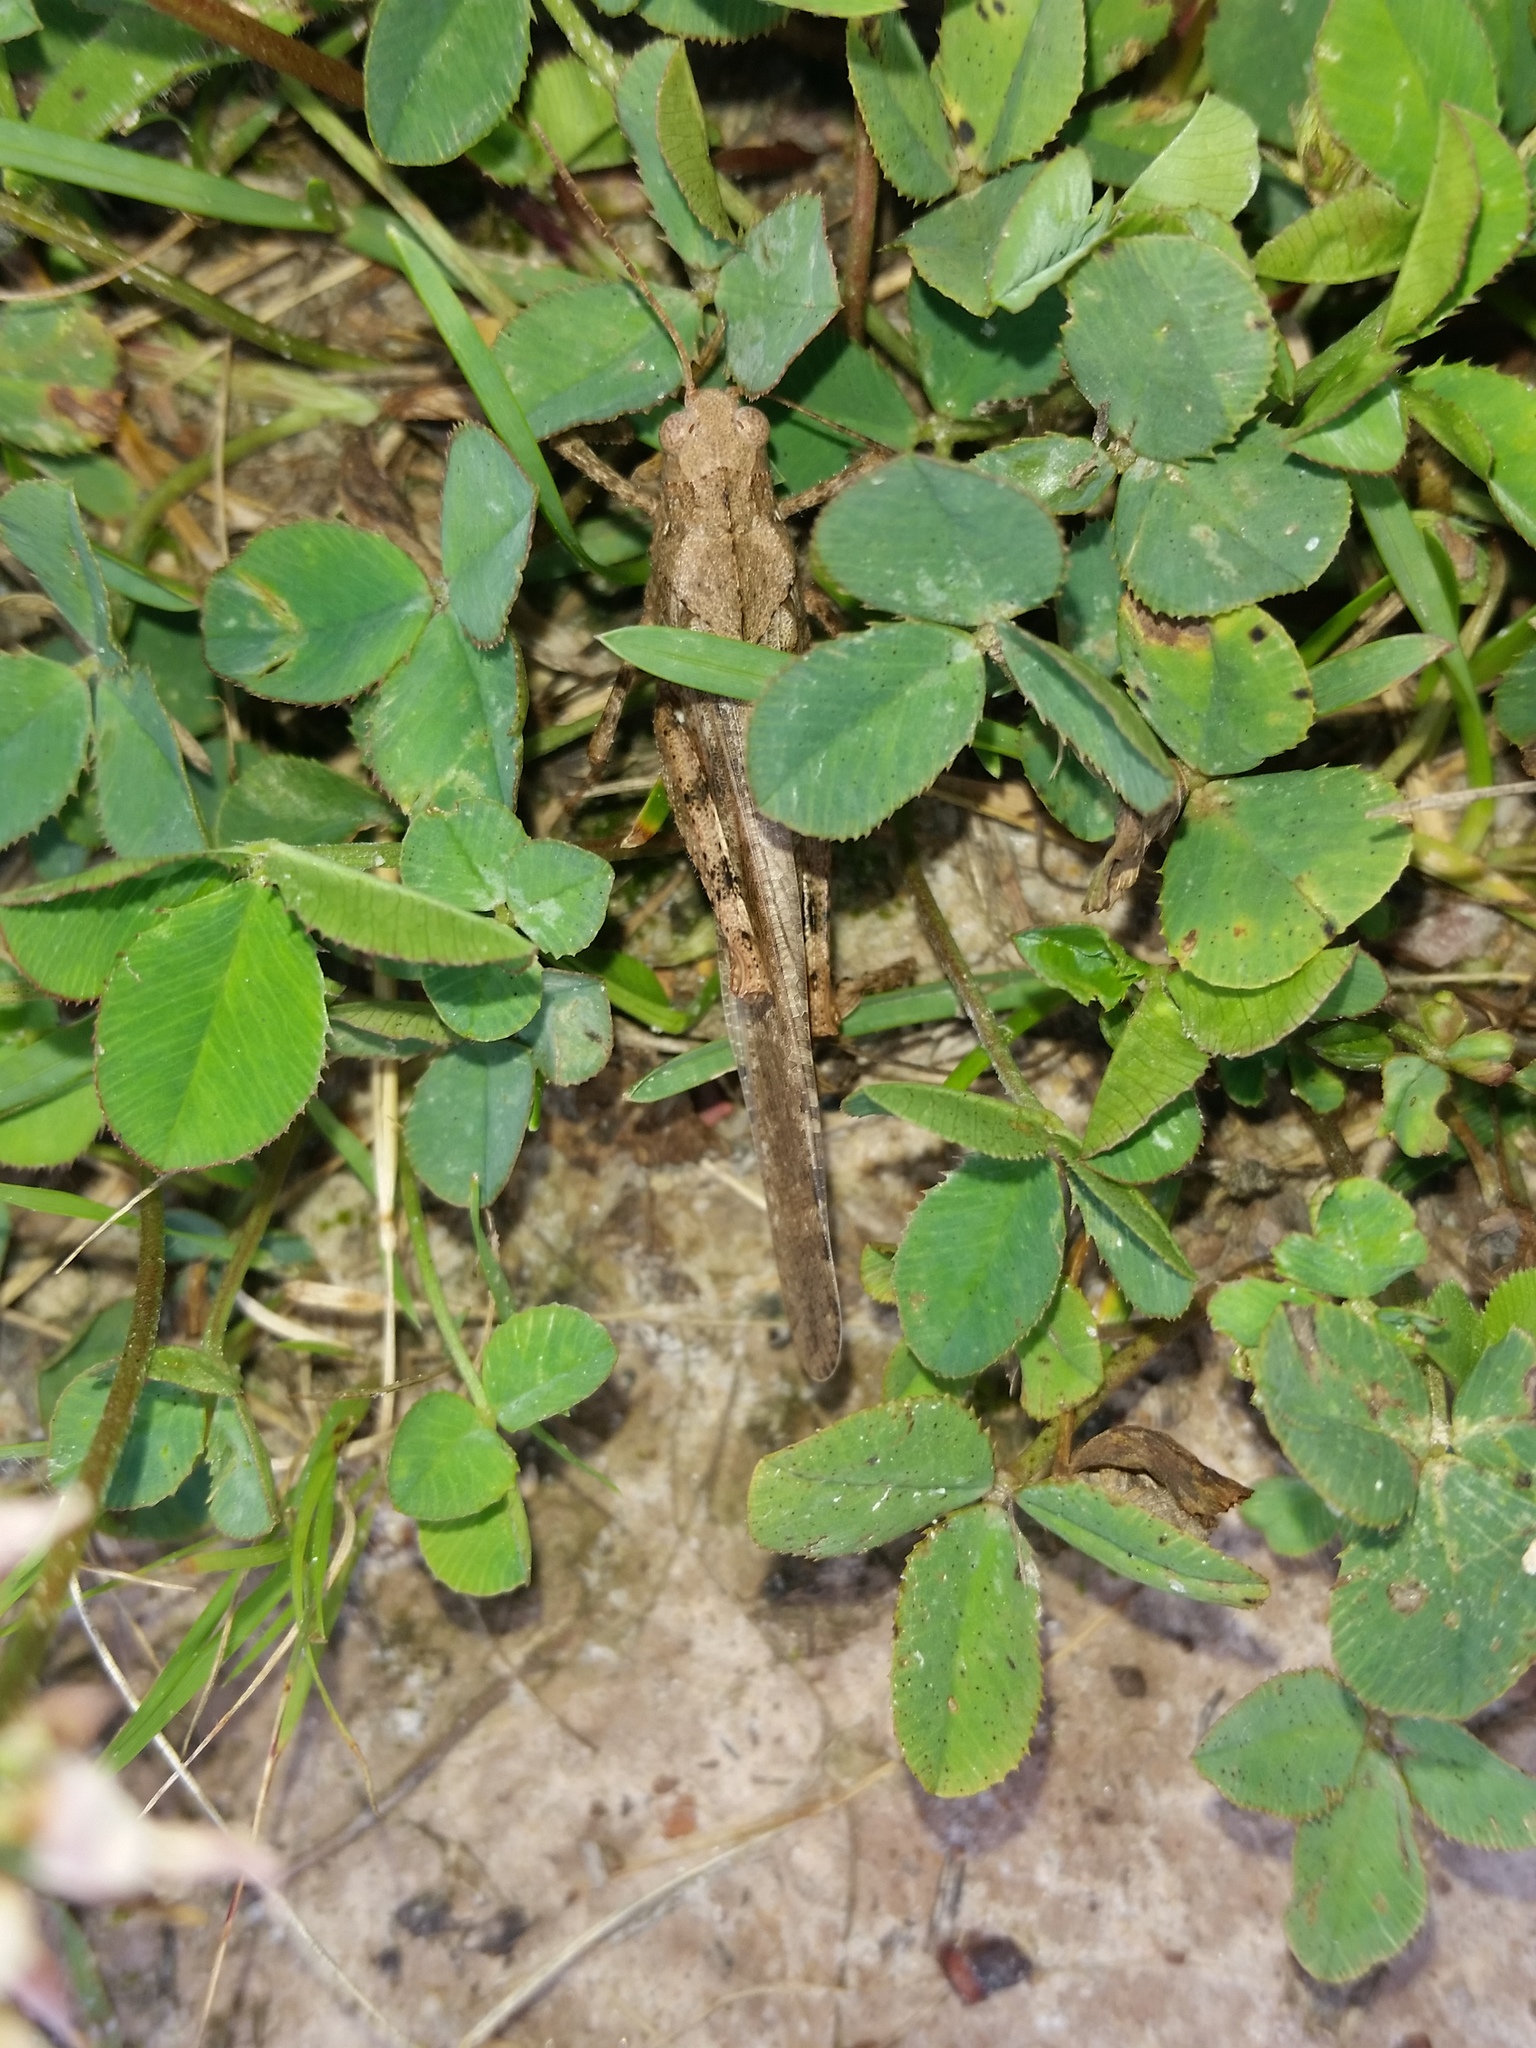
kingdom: Animalia
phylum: Arthropoda
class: Insecta
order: Orthoptera
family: Acrididae
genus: Dissosteira
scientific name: Dissosteira carolina
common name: Carolina grasshopper
